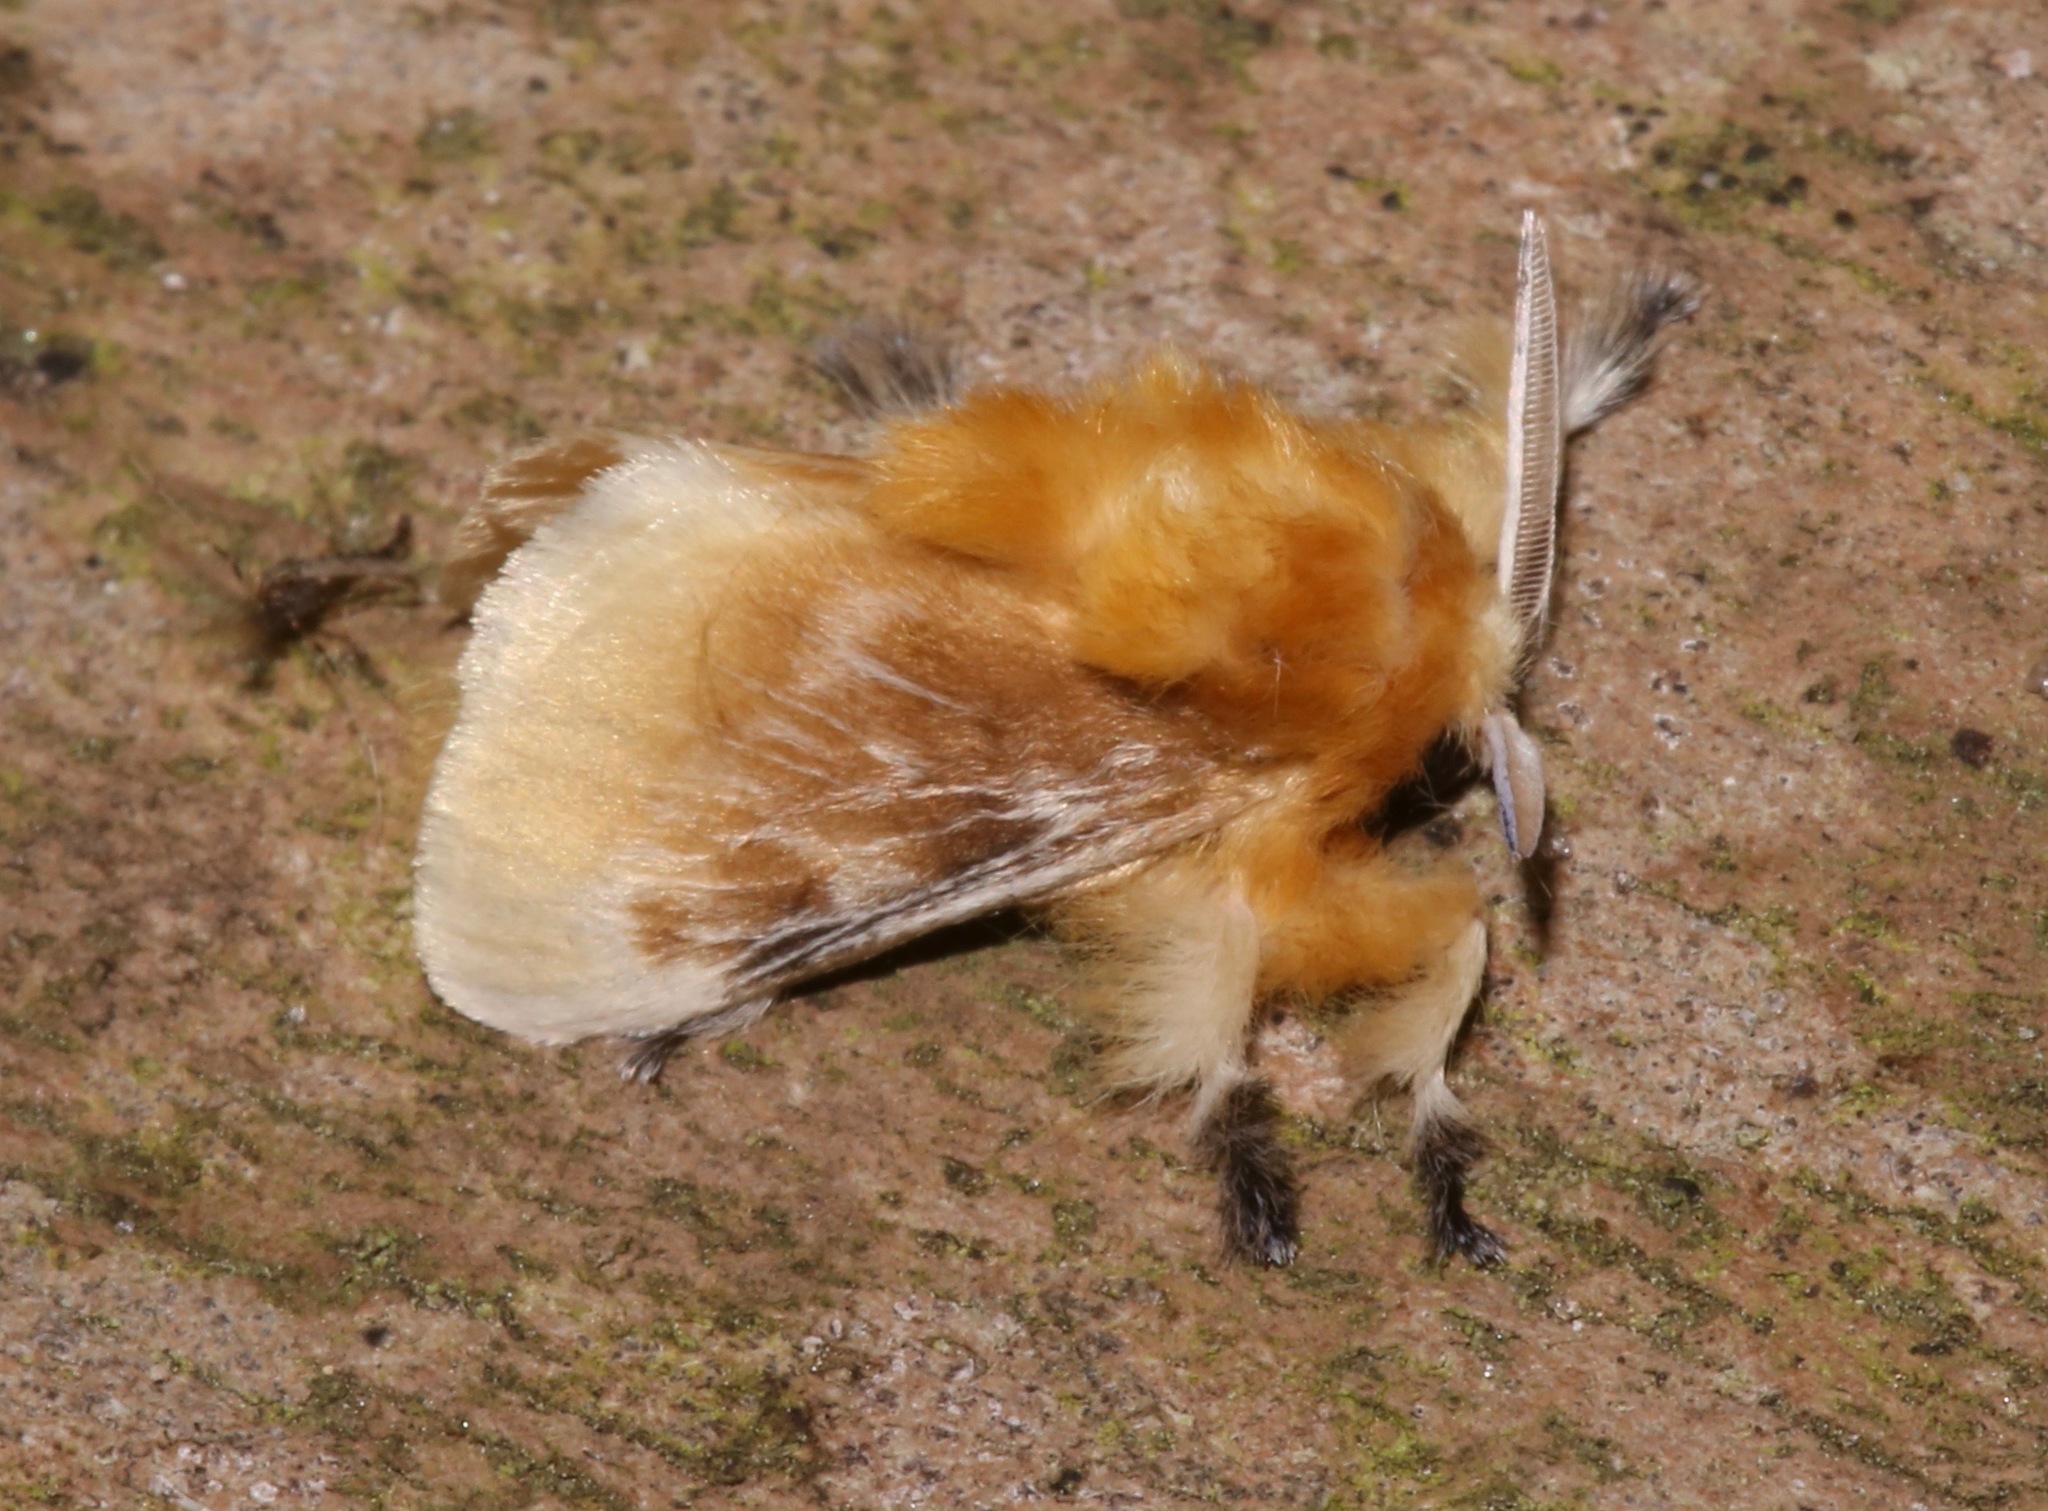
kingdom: Animalia
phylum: Arthropoda
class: Insecta
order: Lepidoptera
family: Megalopygidae
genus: Megalopyge
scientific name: Megalopyge opercularis
